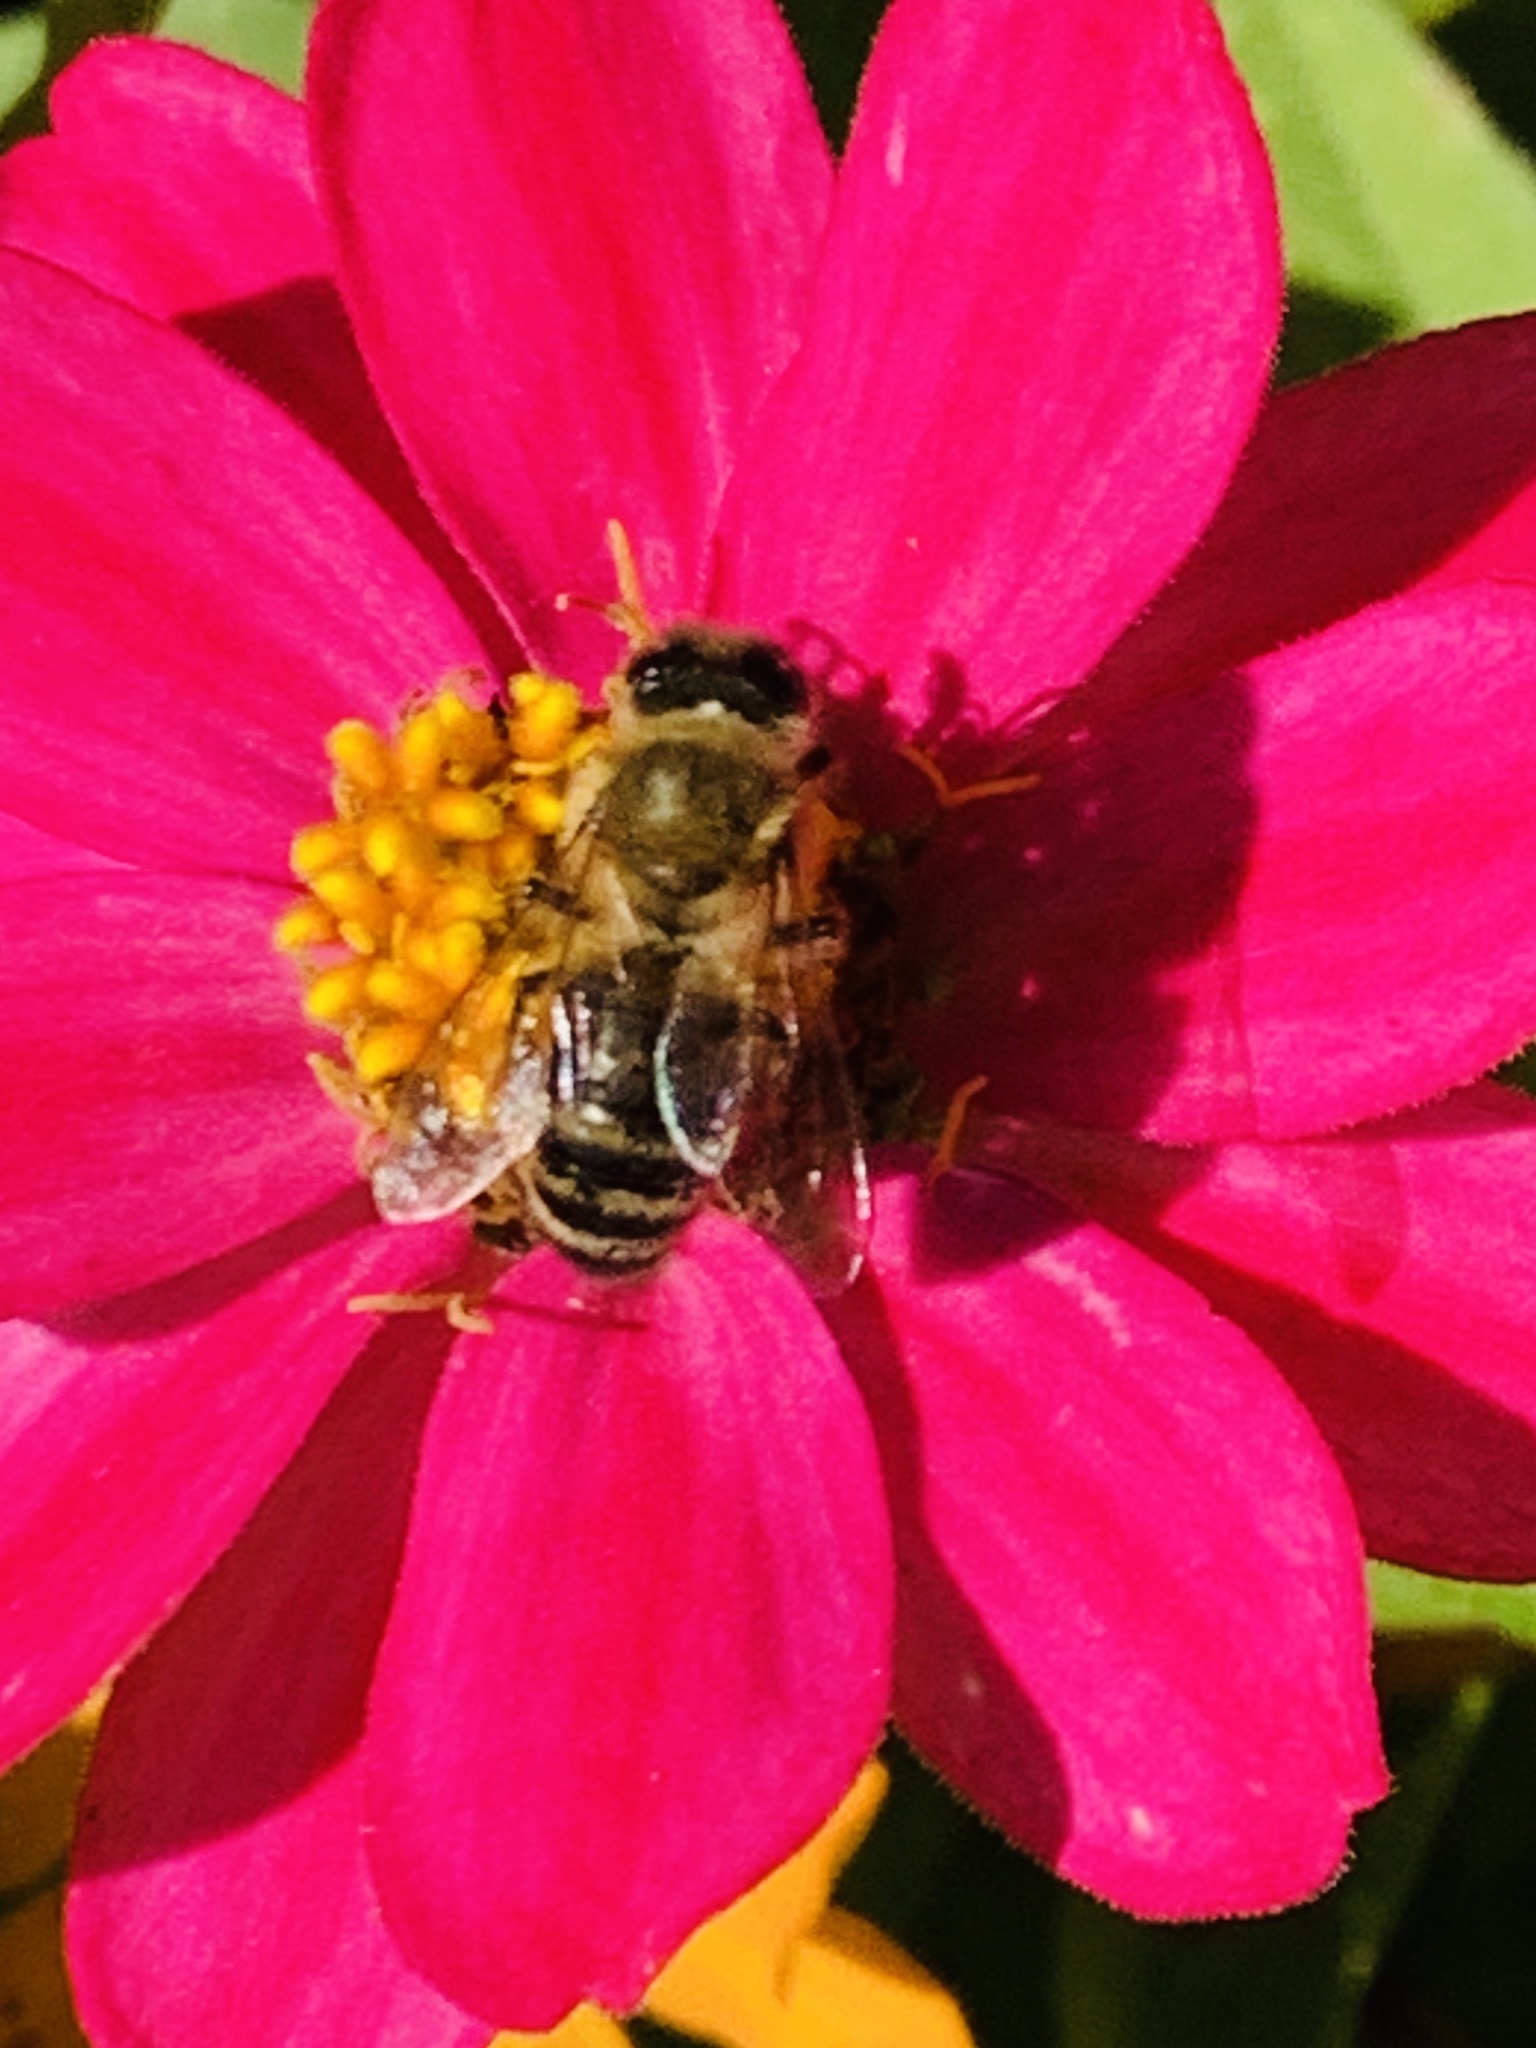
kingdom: Animalia
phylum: Arthropoda
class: Insecta
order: Hymenoptera
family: Apidae
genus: Apis
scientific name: Apis mellifera
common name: Honey bee
